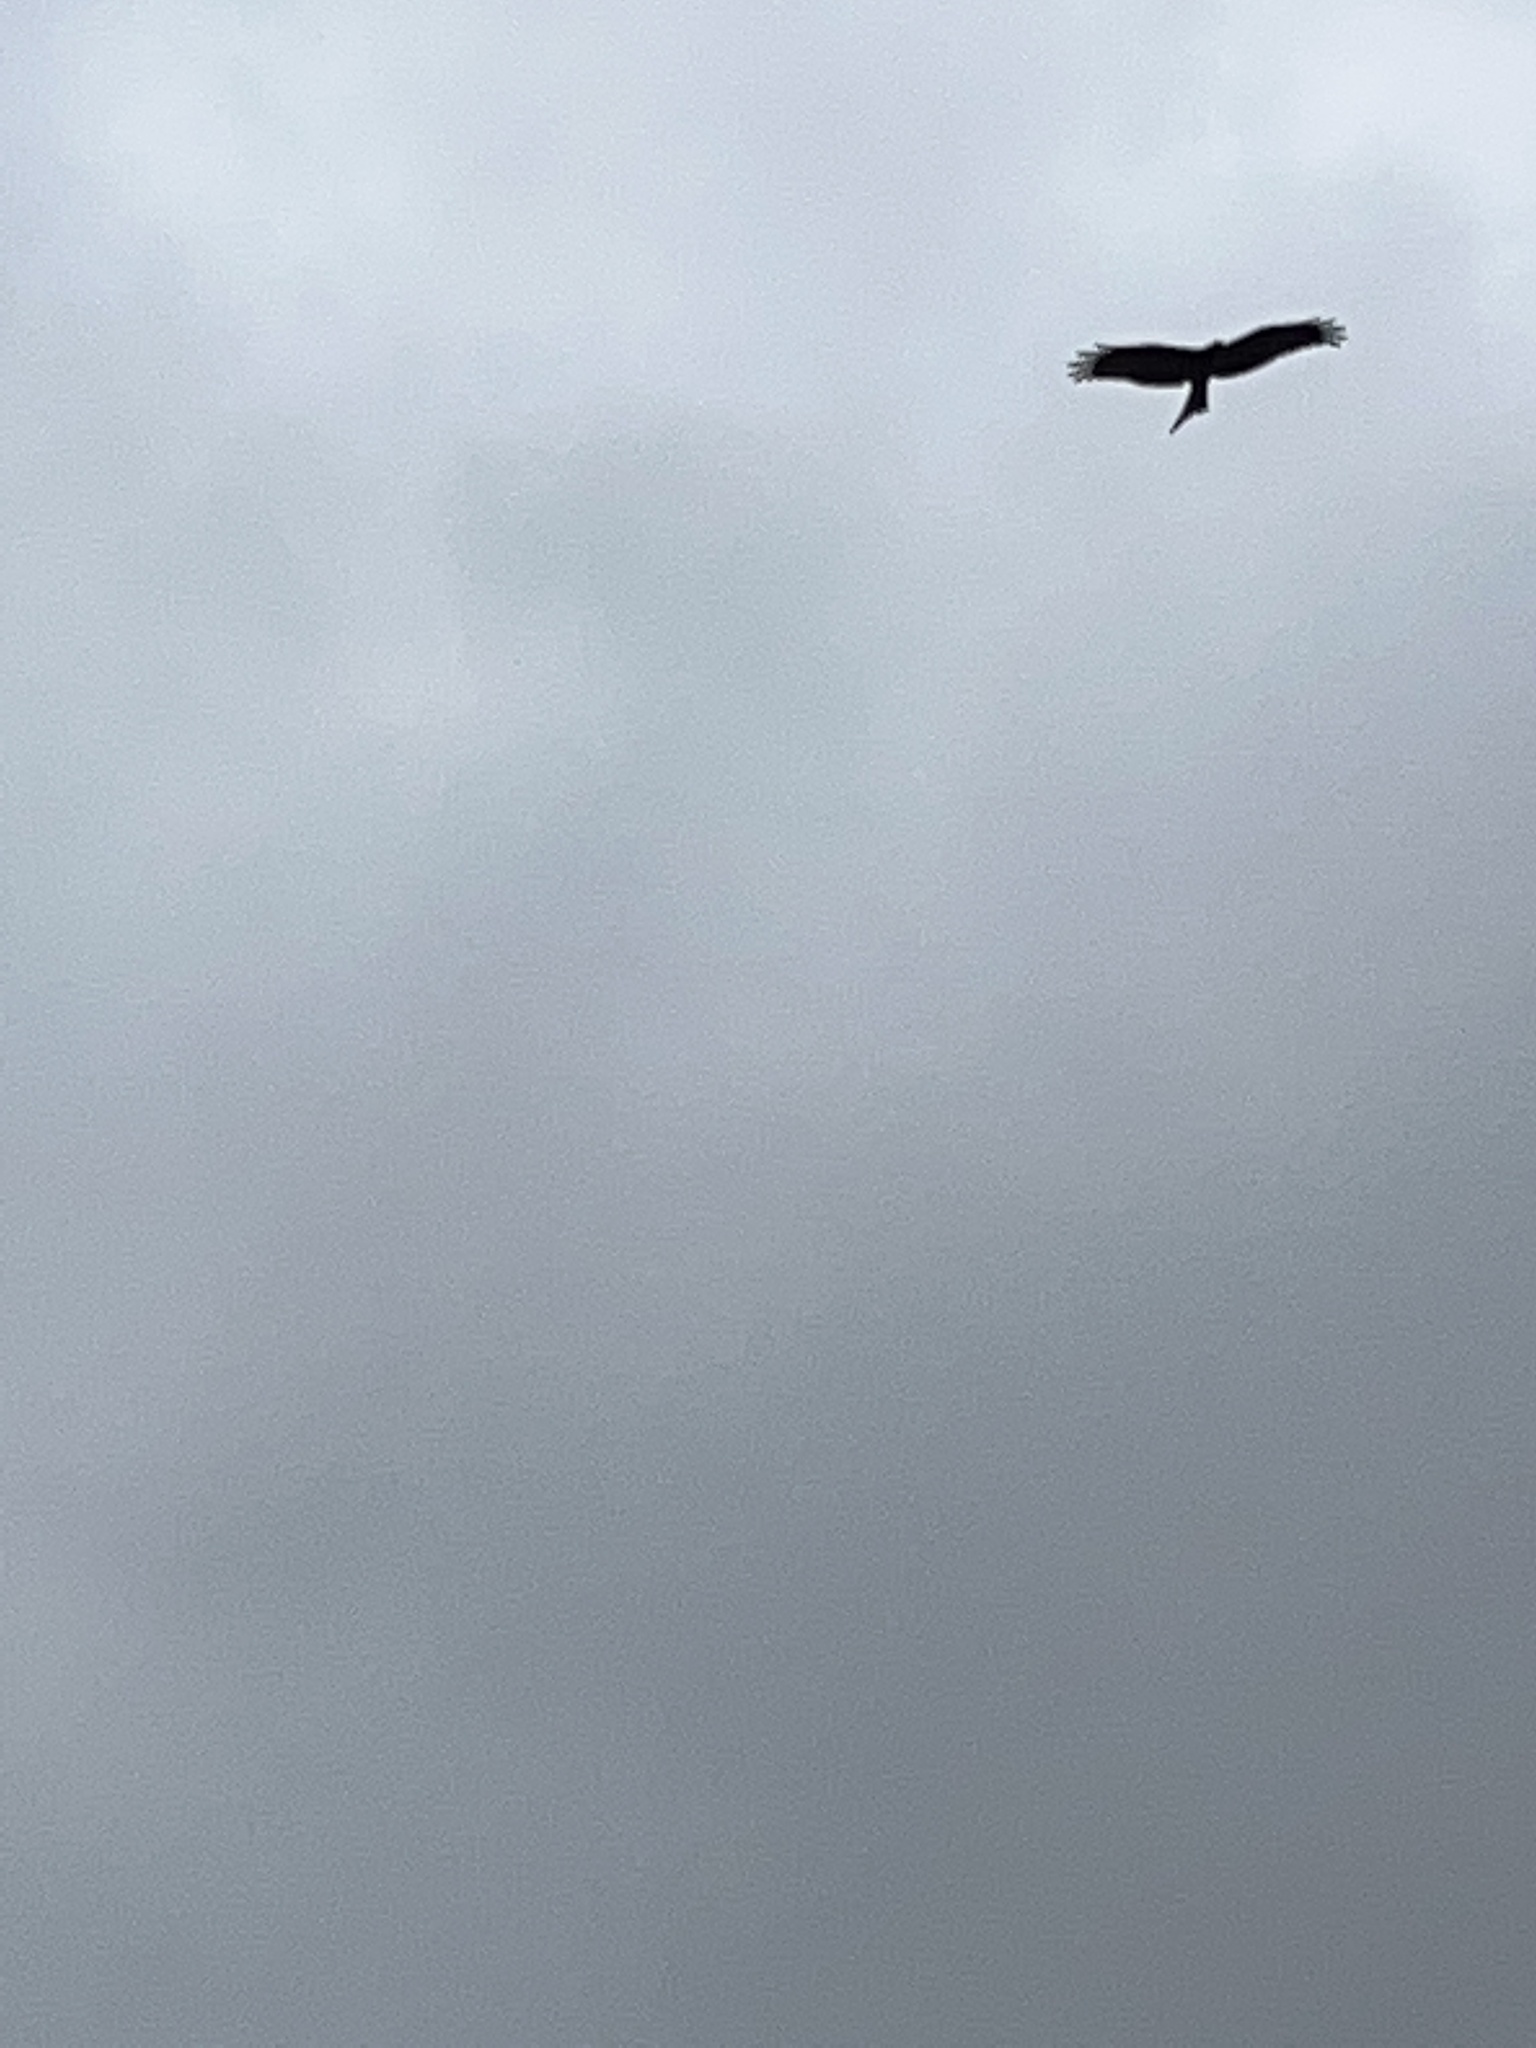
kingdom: Animalia
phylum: Chordata
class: Aves
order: Accipitriformes
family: Accipitridae
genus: Milvus
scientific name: Milvus migrans
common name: Black kite
